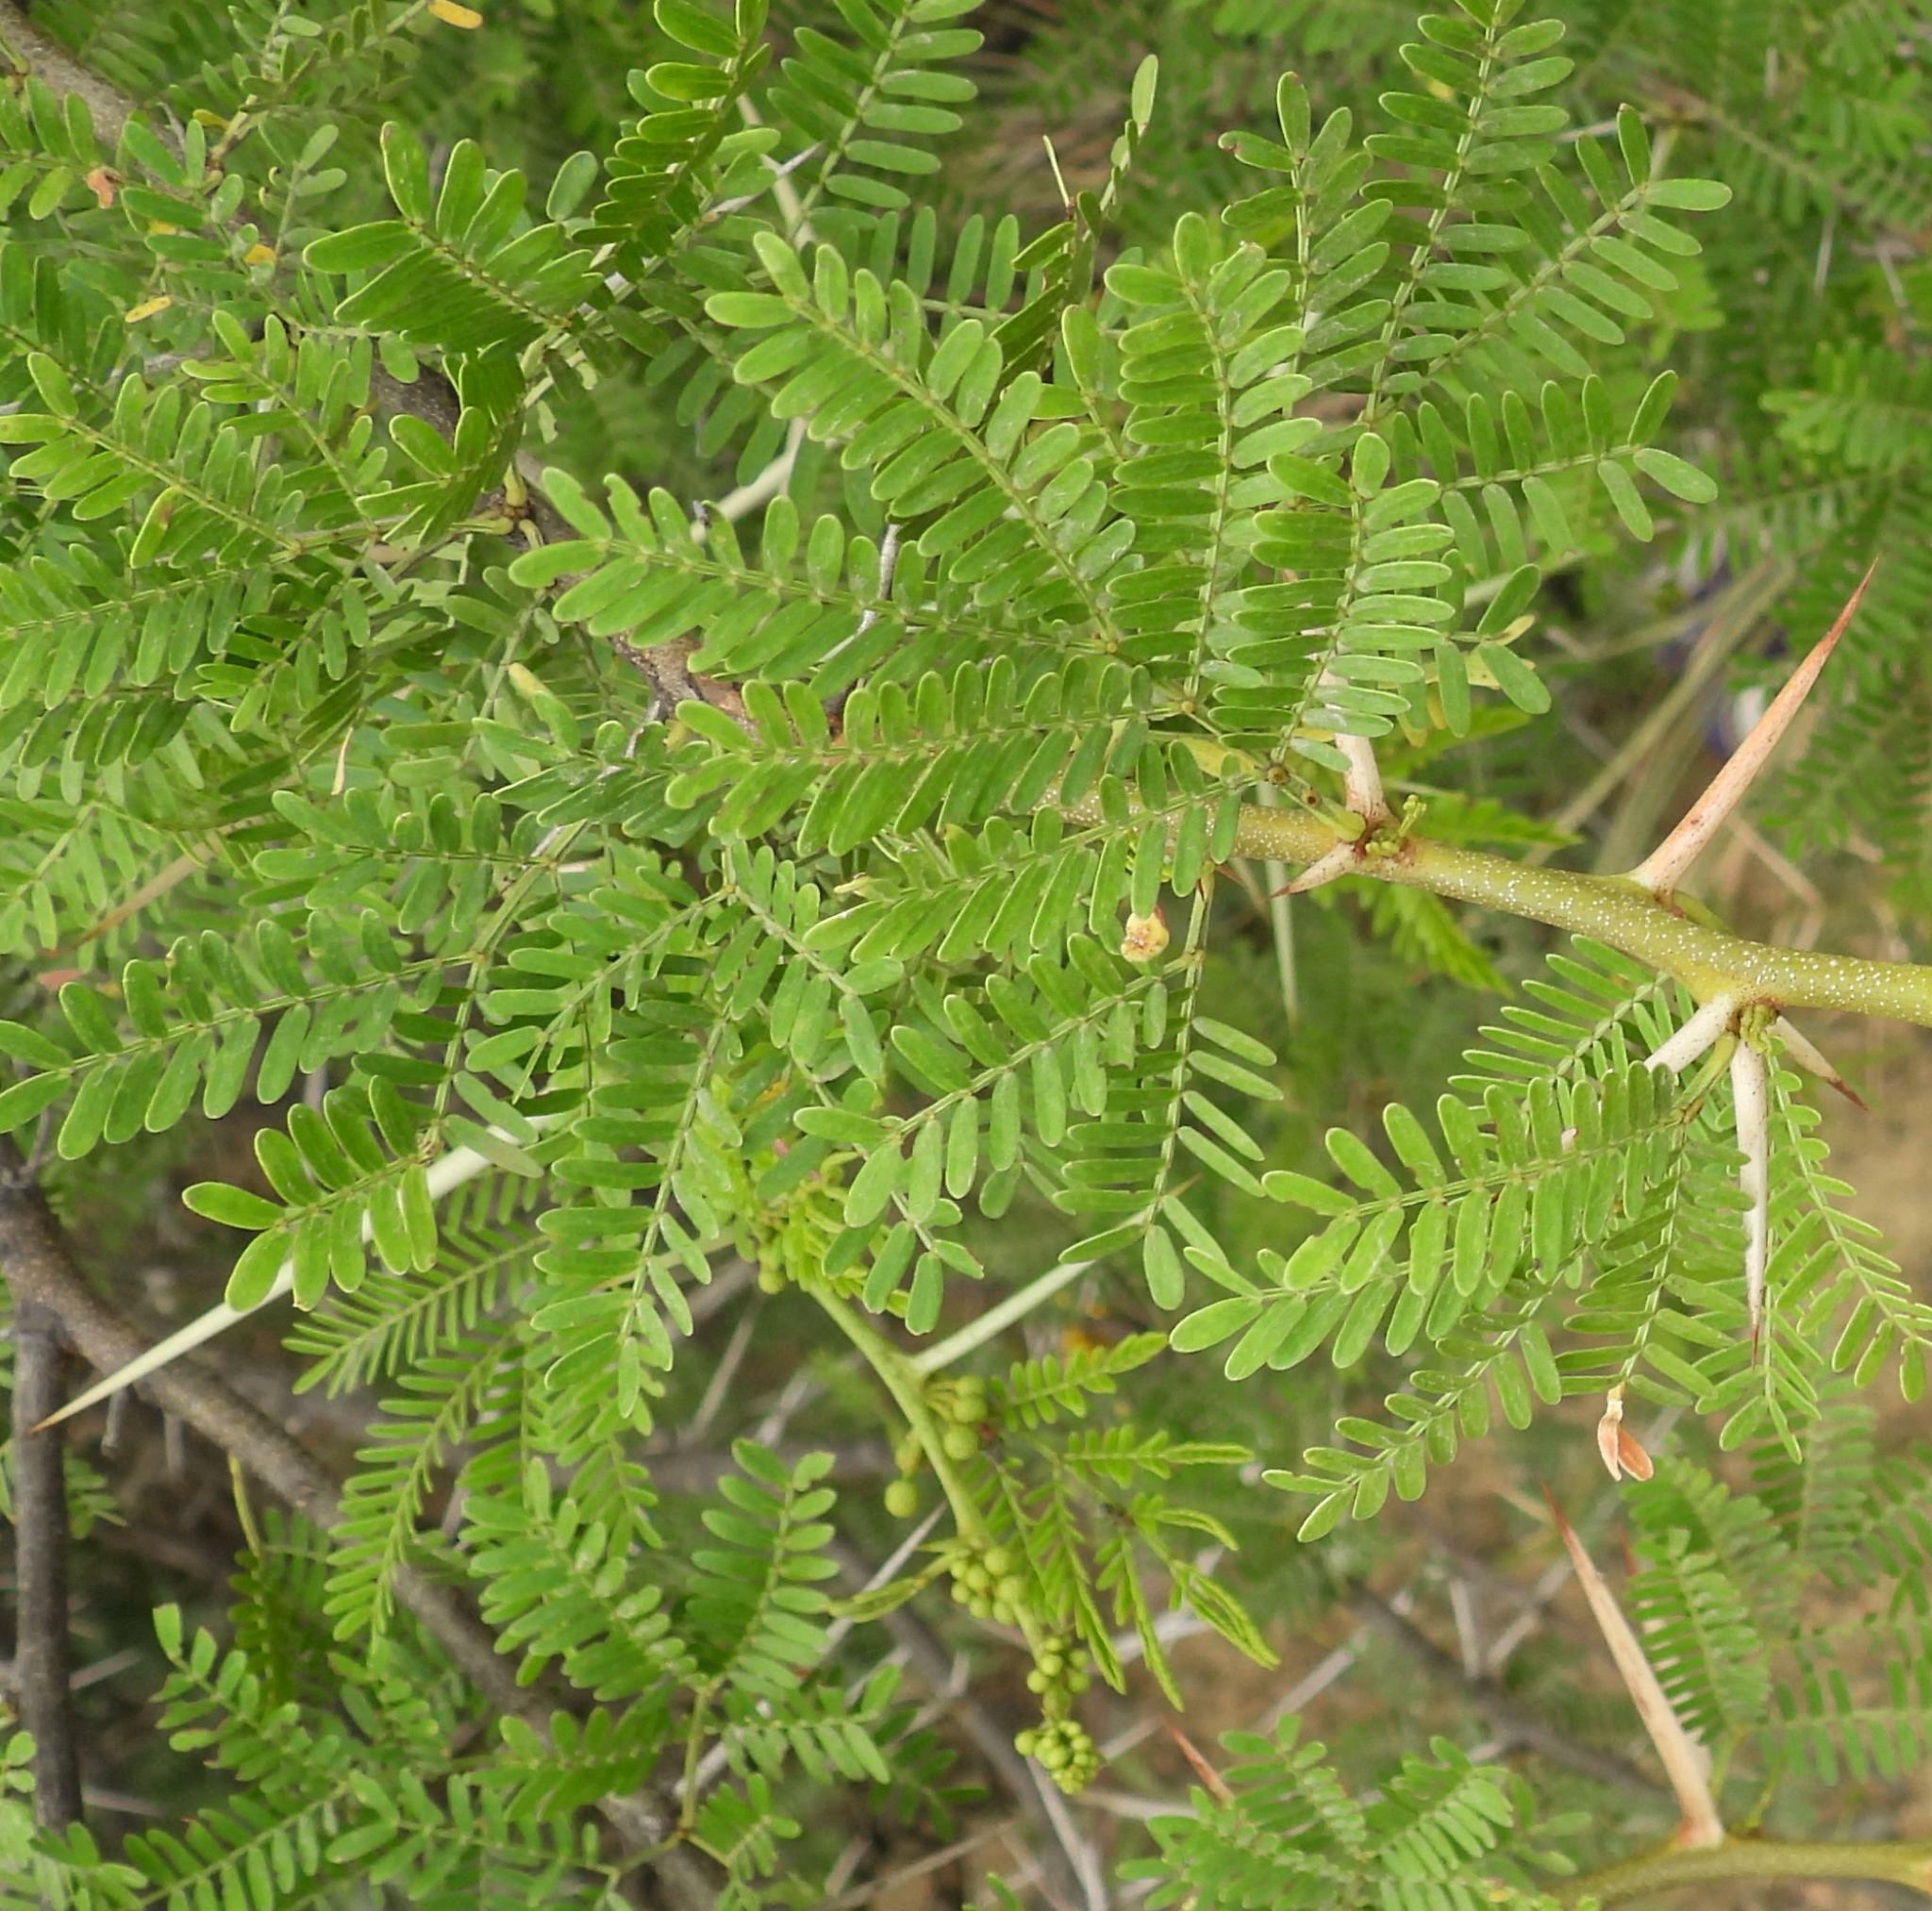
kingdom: Plantae
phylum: Tracheophyta
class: Magnoliopsida
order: Fabales
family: Fabaceae
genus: Vachellia
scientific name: Vachellia karroo
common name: Sweet thorn
